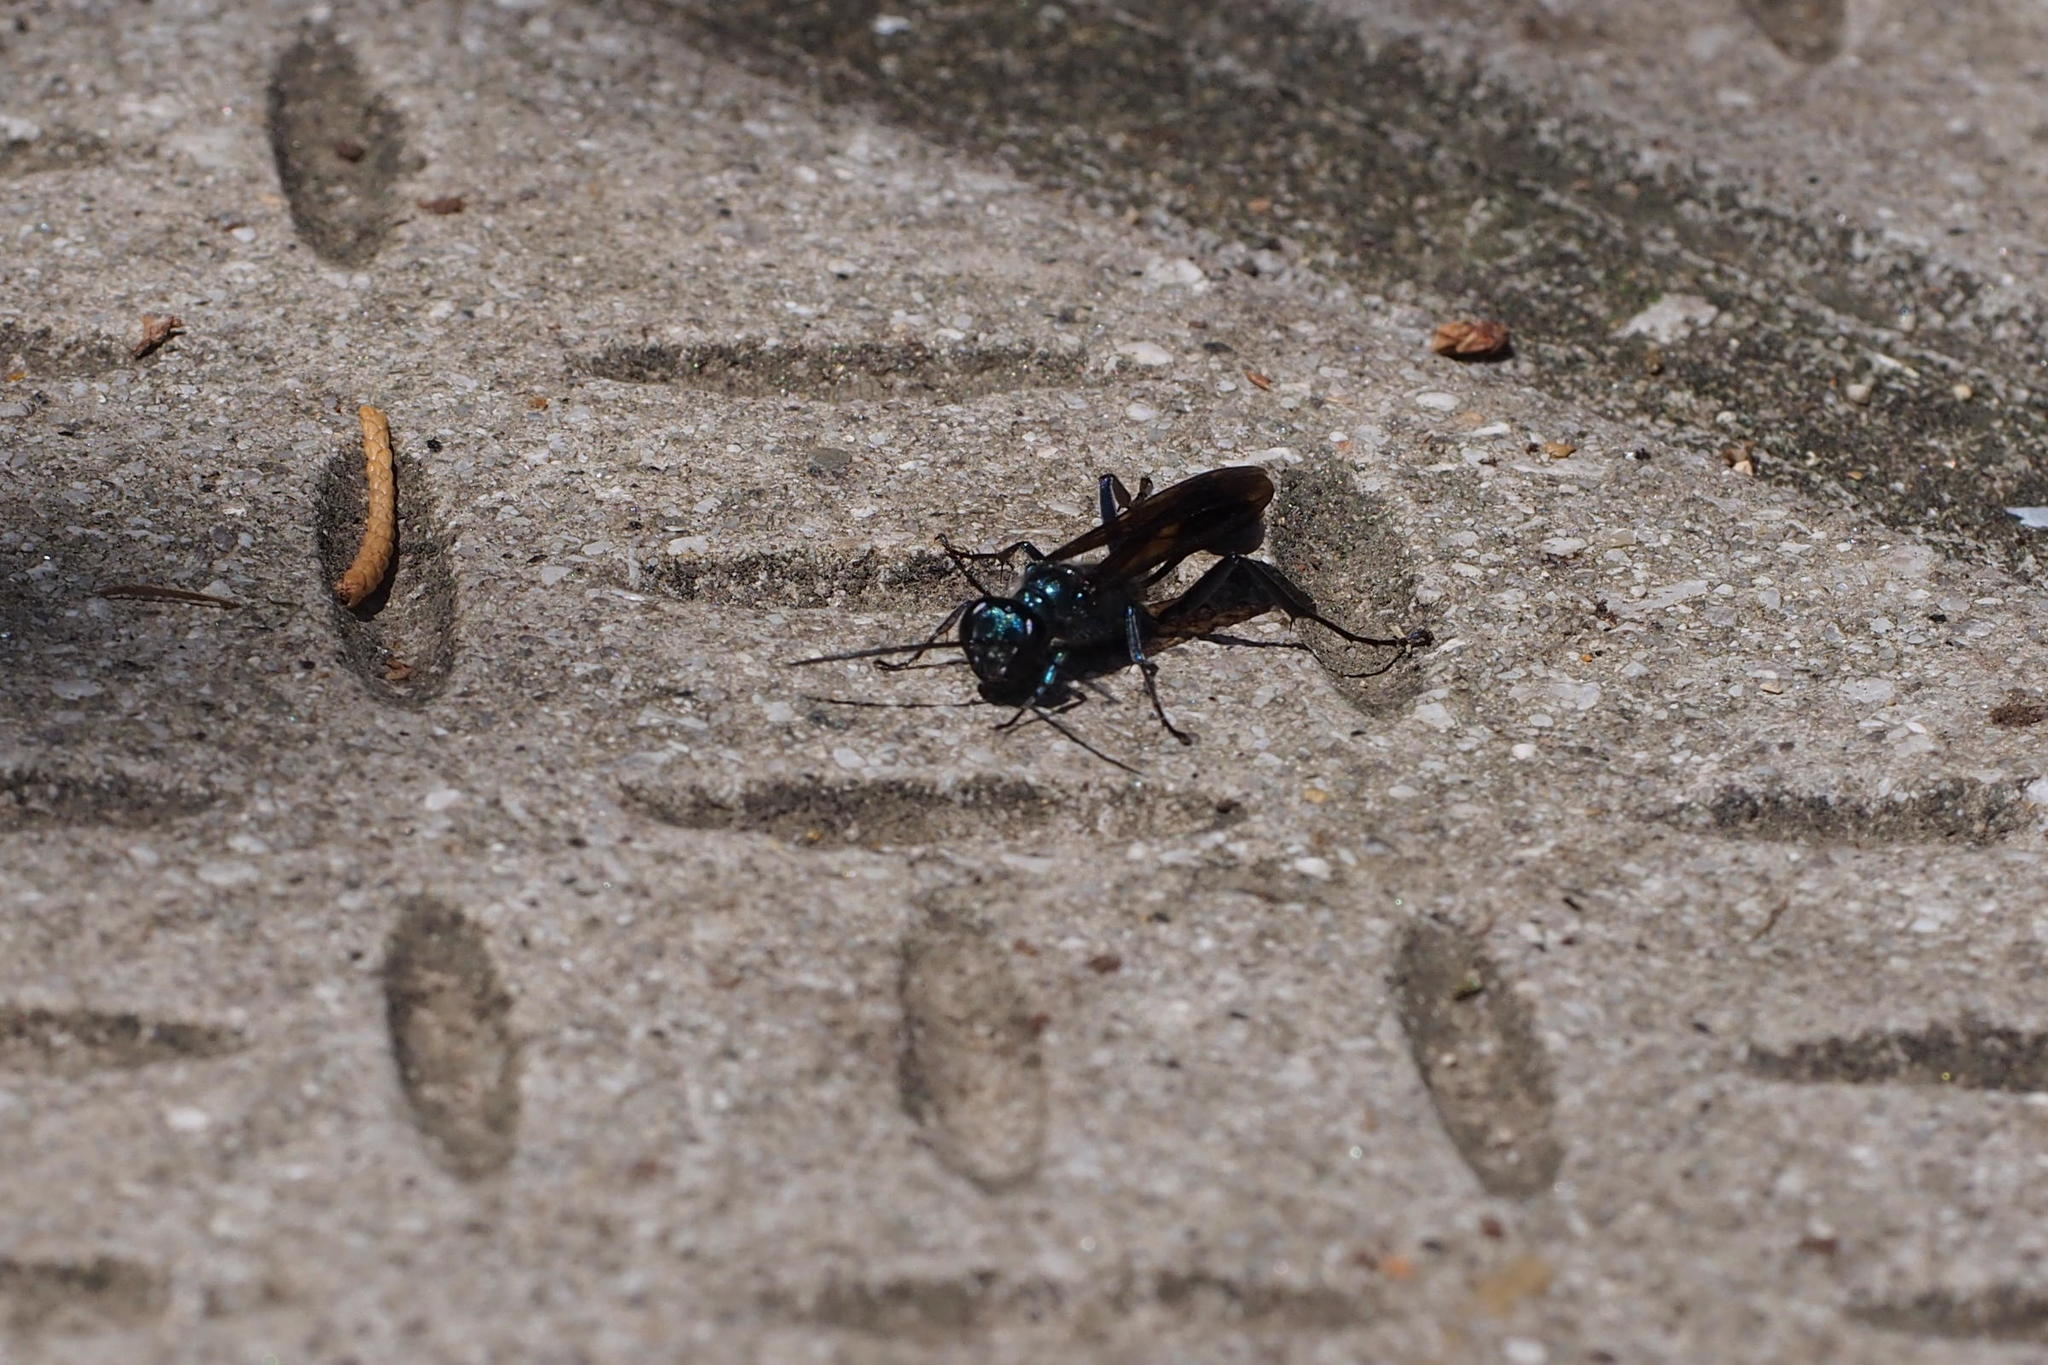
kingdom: Animalia
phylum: Arthropoda
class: Insecta
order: Hymenoptera
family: Sphecidae
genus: Chalybion
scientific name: Chalybion japonicum
